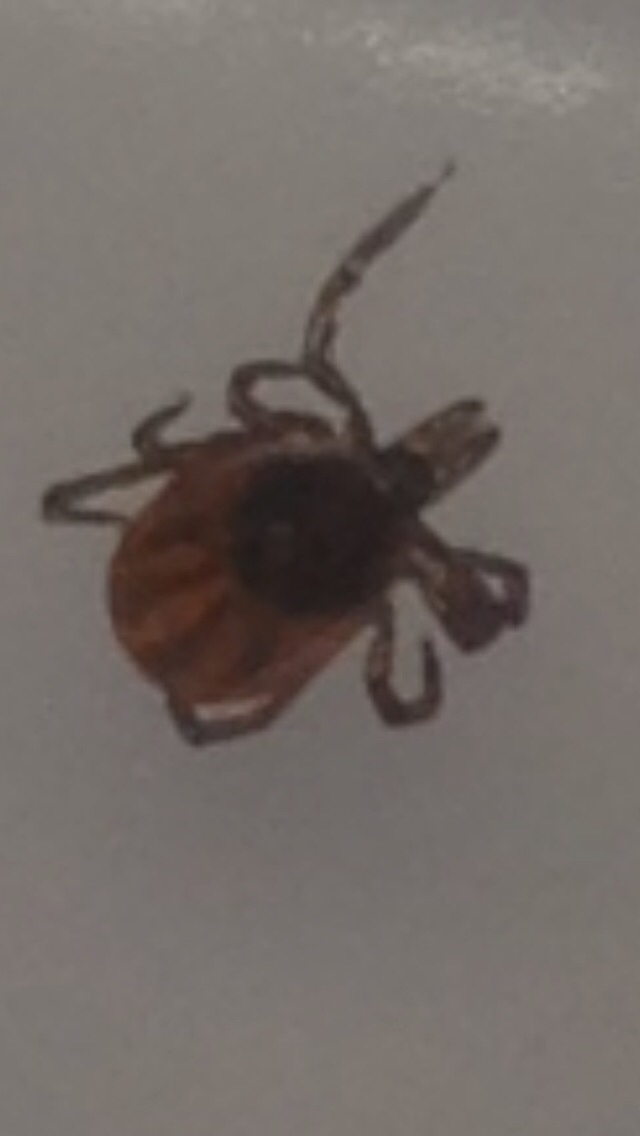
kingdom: Animalia
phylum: Arthropoda
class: Arachnida
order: Ixodida
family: Ixodidae
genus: Ixodes
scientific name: Ixodes scapularis
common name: Black legged tick
